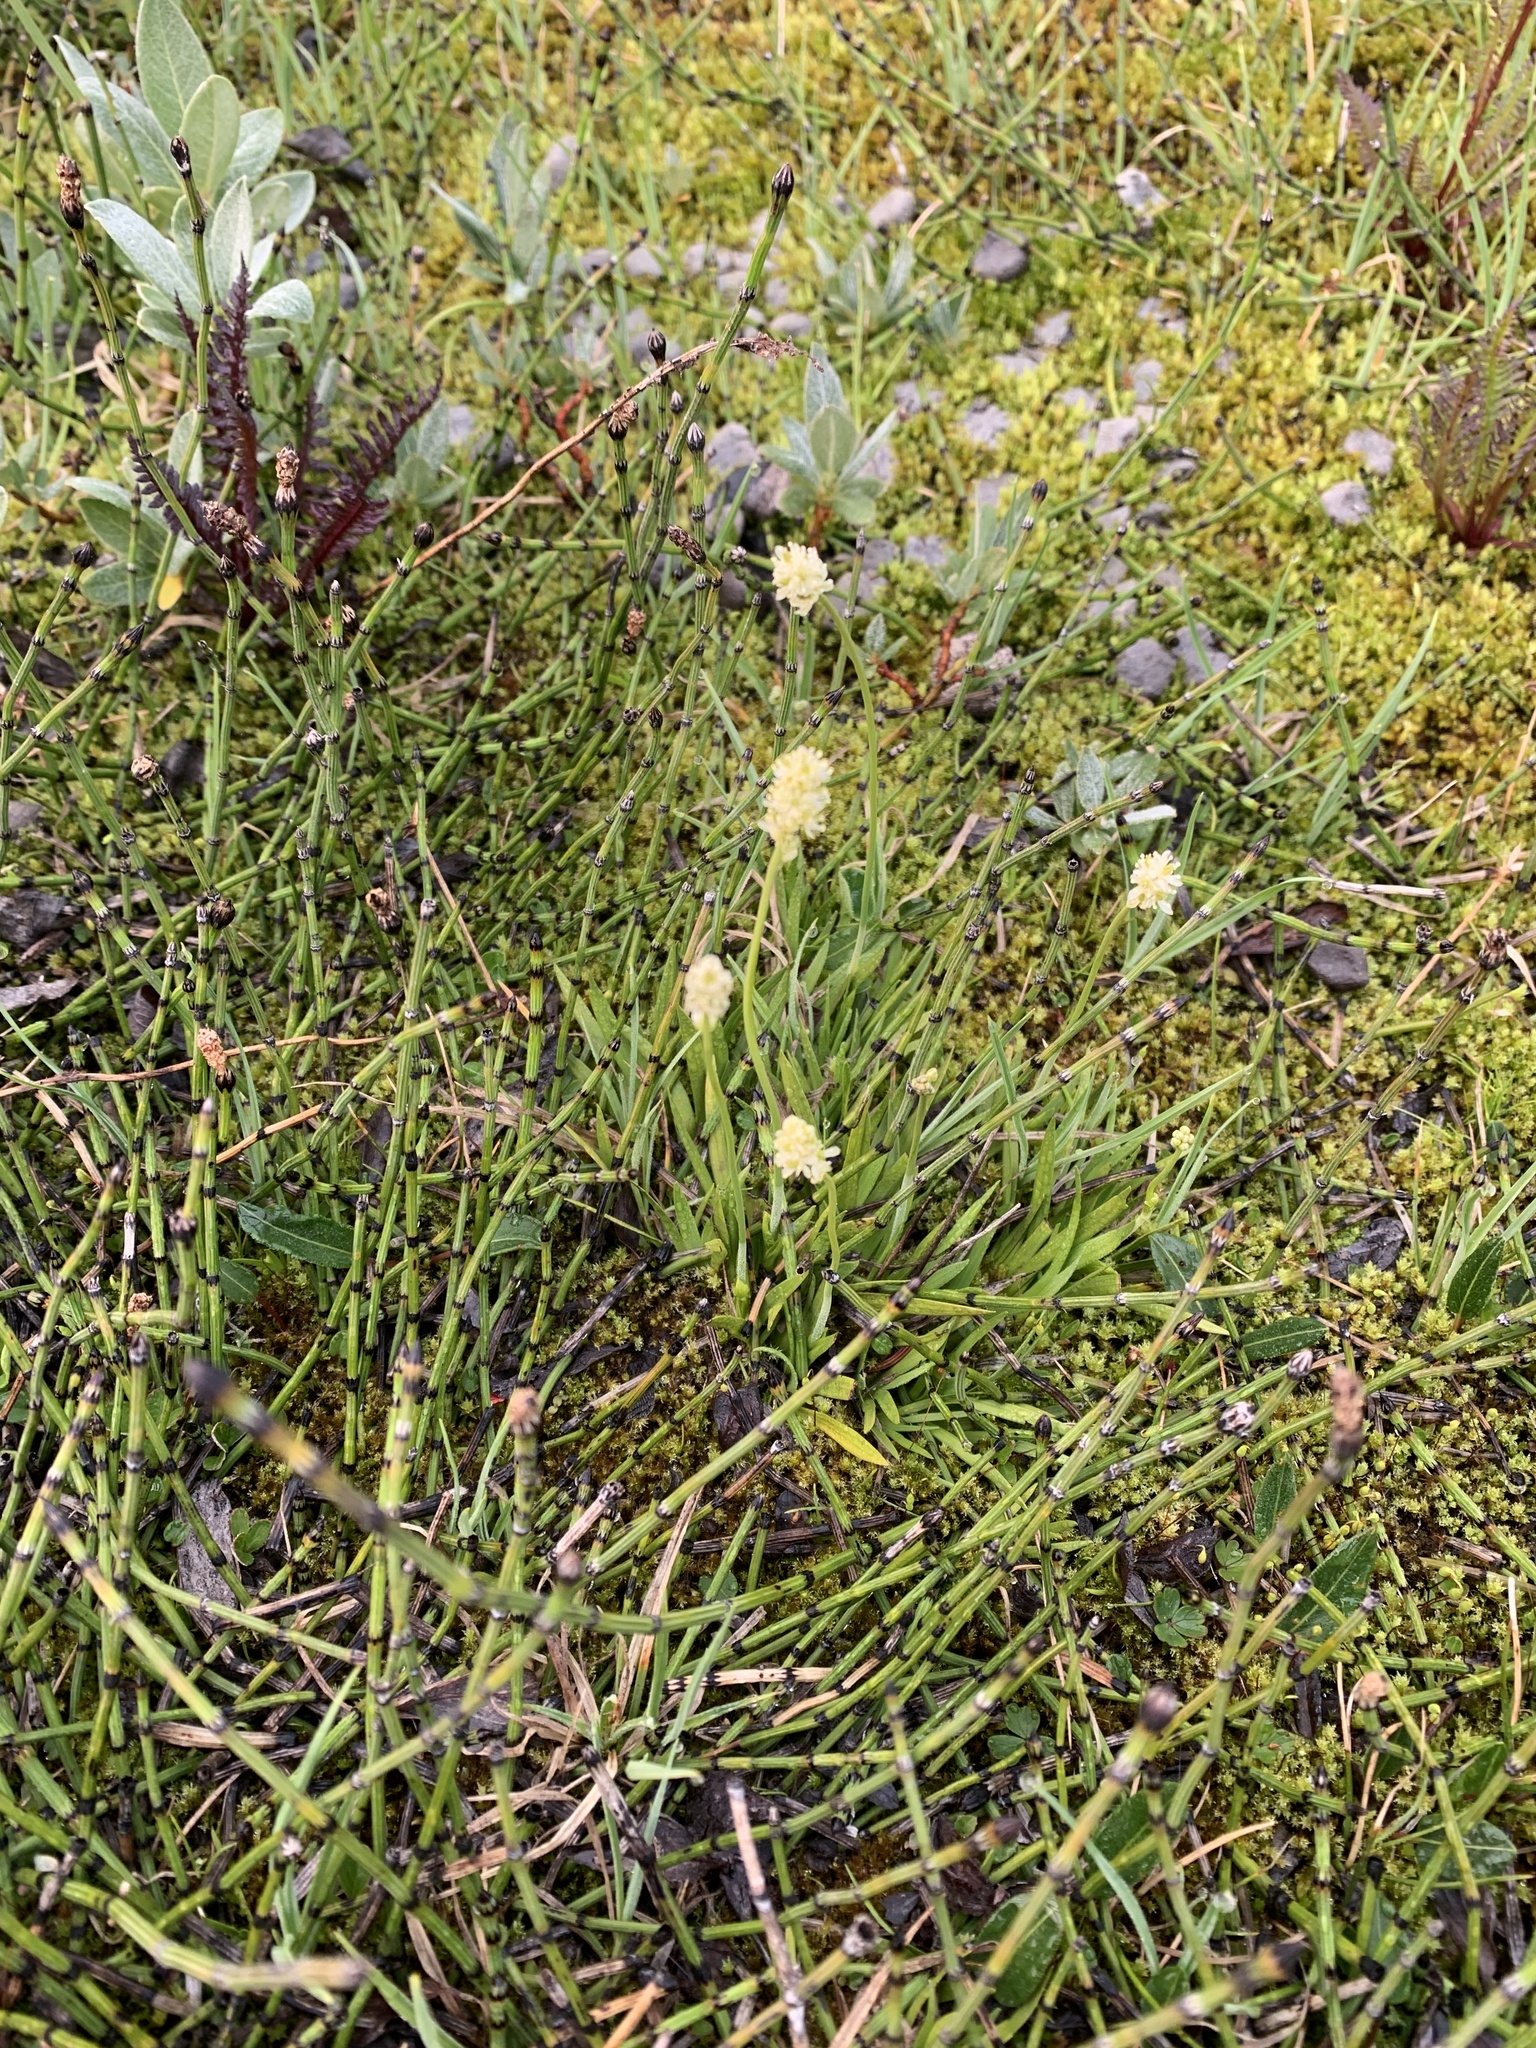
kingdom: Plantae
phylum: Tracheophyta
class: Liliopsida
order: Alismatales
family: Tofieldiaceae
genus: Tofieldia
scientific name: Tofieldia pusilla
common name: Scottish false asphodel
